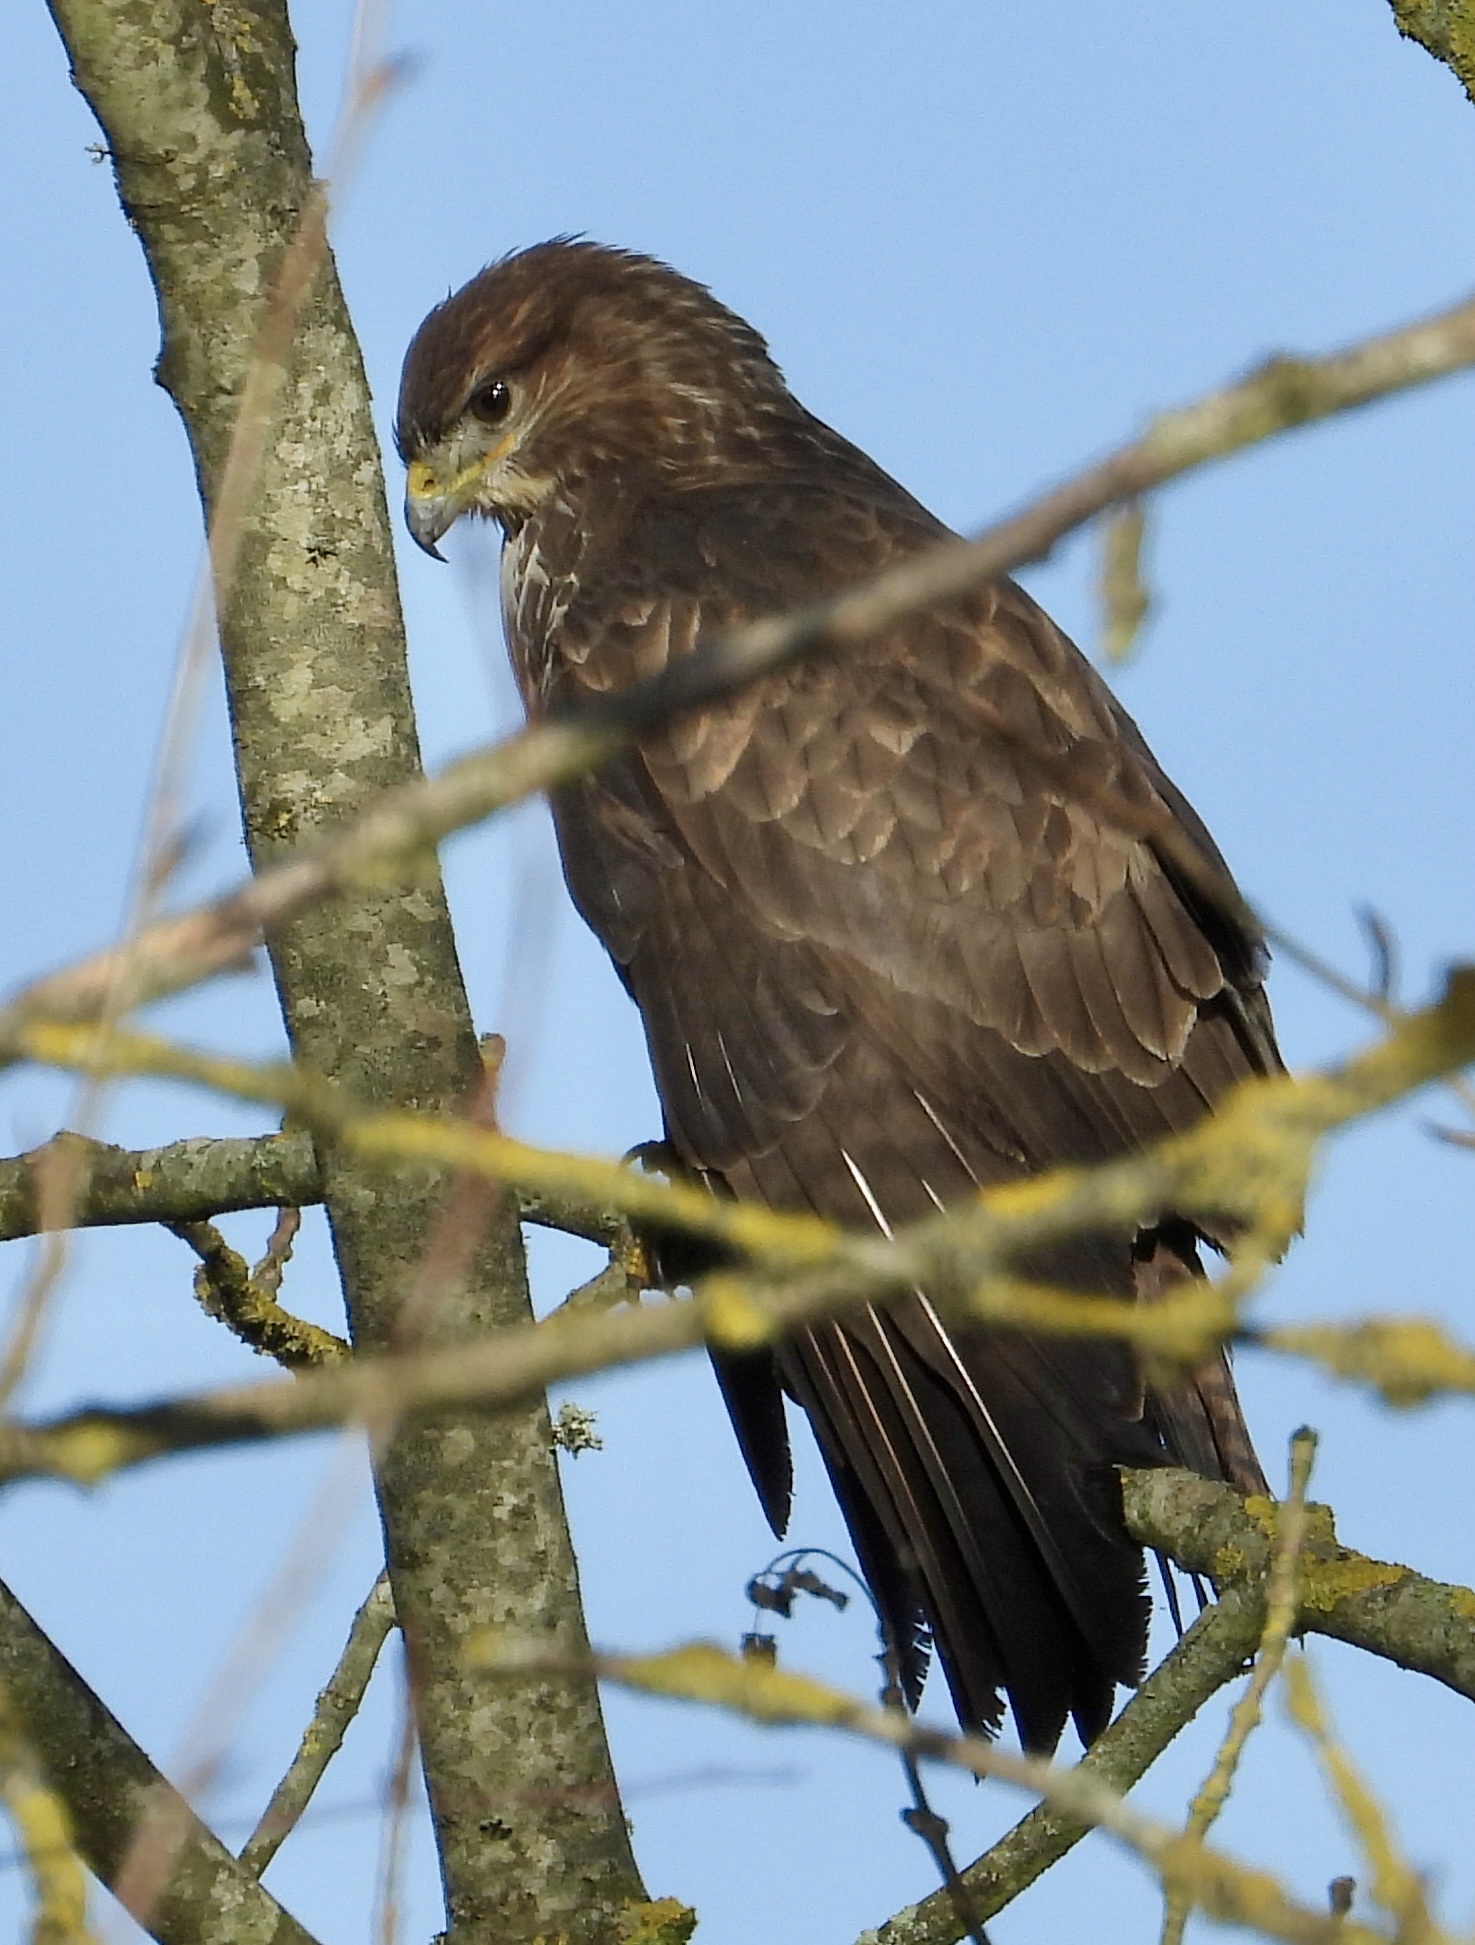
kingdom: Animalia
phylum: Chordata
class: Aves
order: Accipitriformes
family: Accipitridae
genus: Buteo
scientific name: Buteo buteo
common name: Common buzzard
